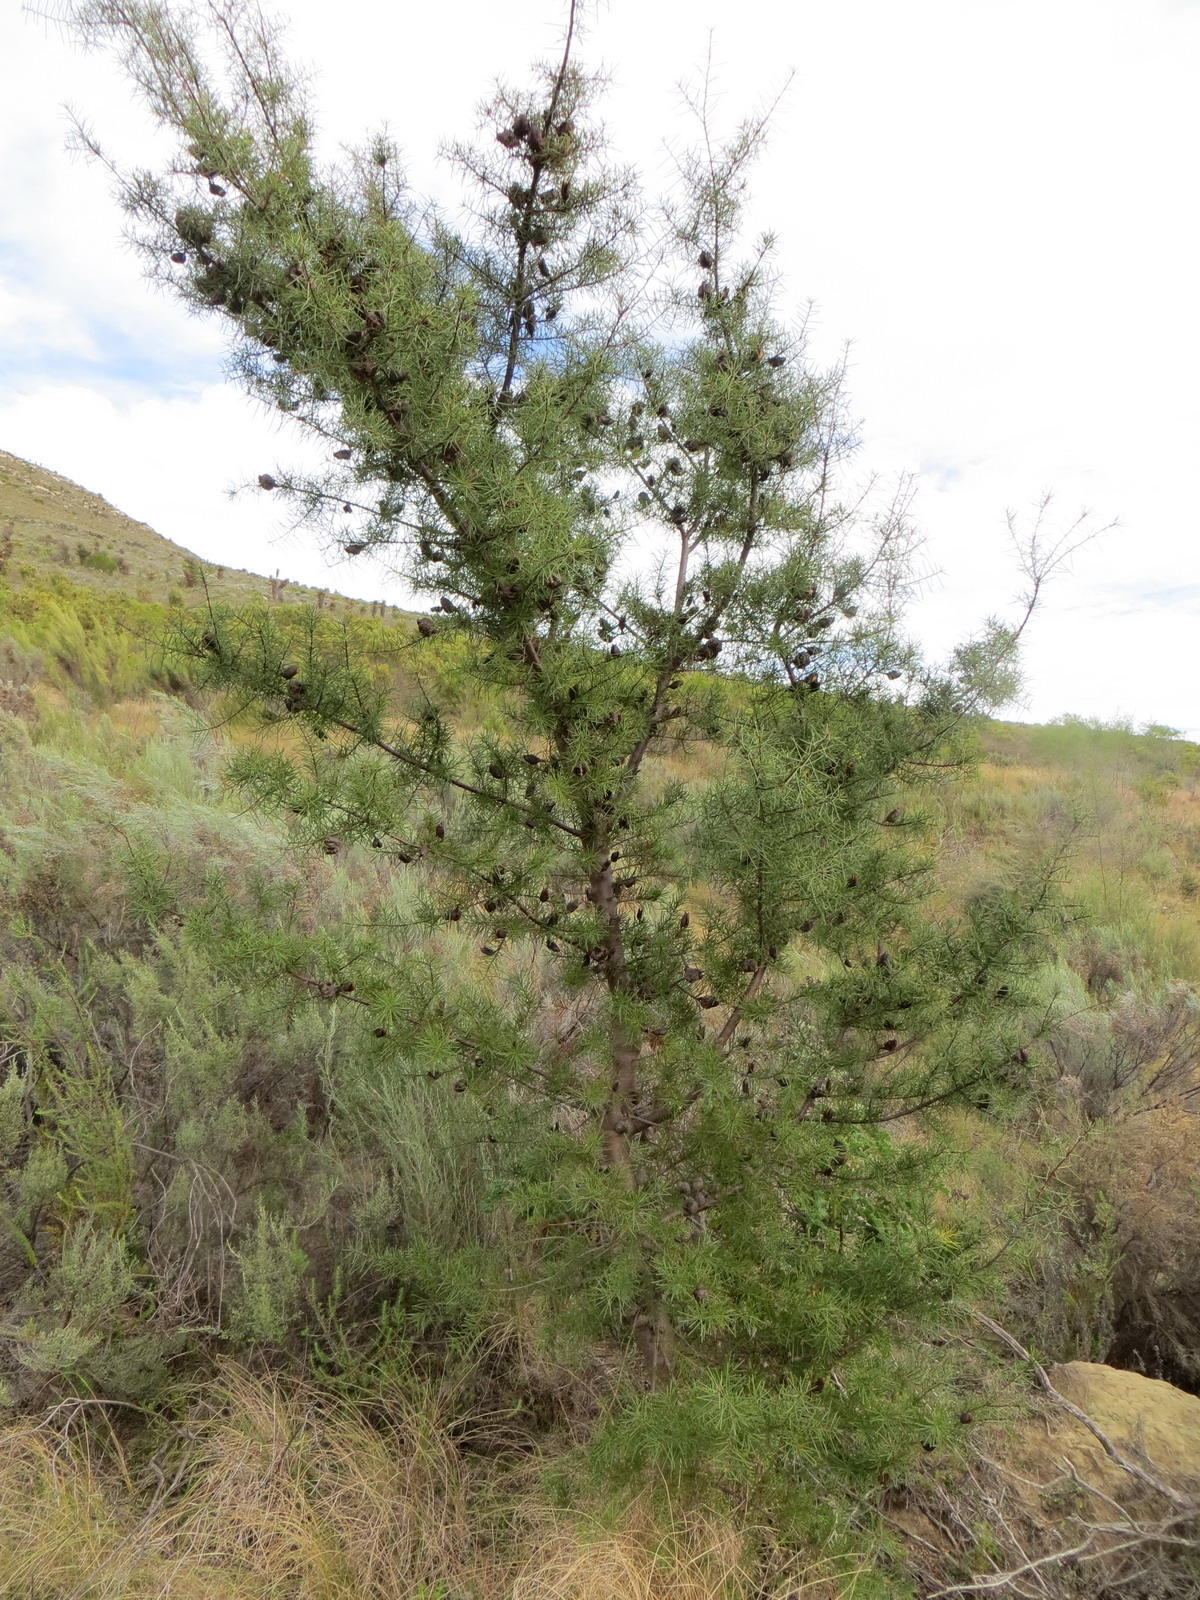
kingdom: Plantae
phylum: Tracheophyta
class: Magnoliopsida
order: Proteales
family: Proteaceae
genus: Hakea
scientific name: Hakea sericea
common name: Needle bush
